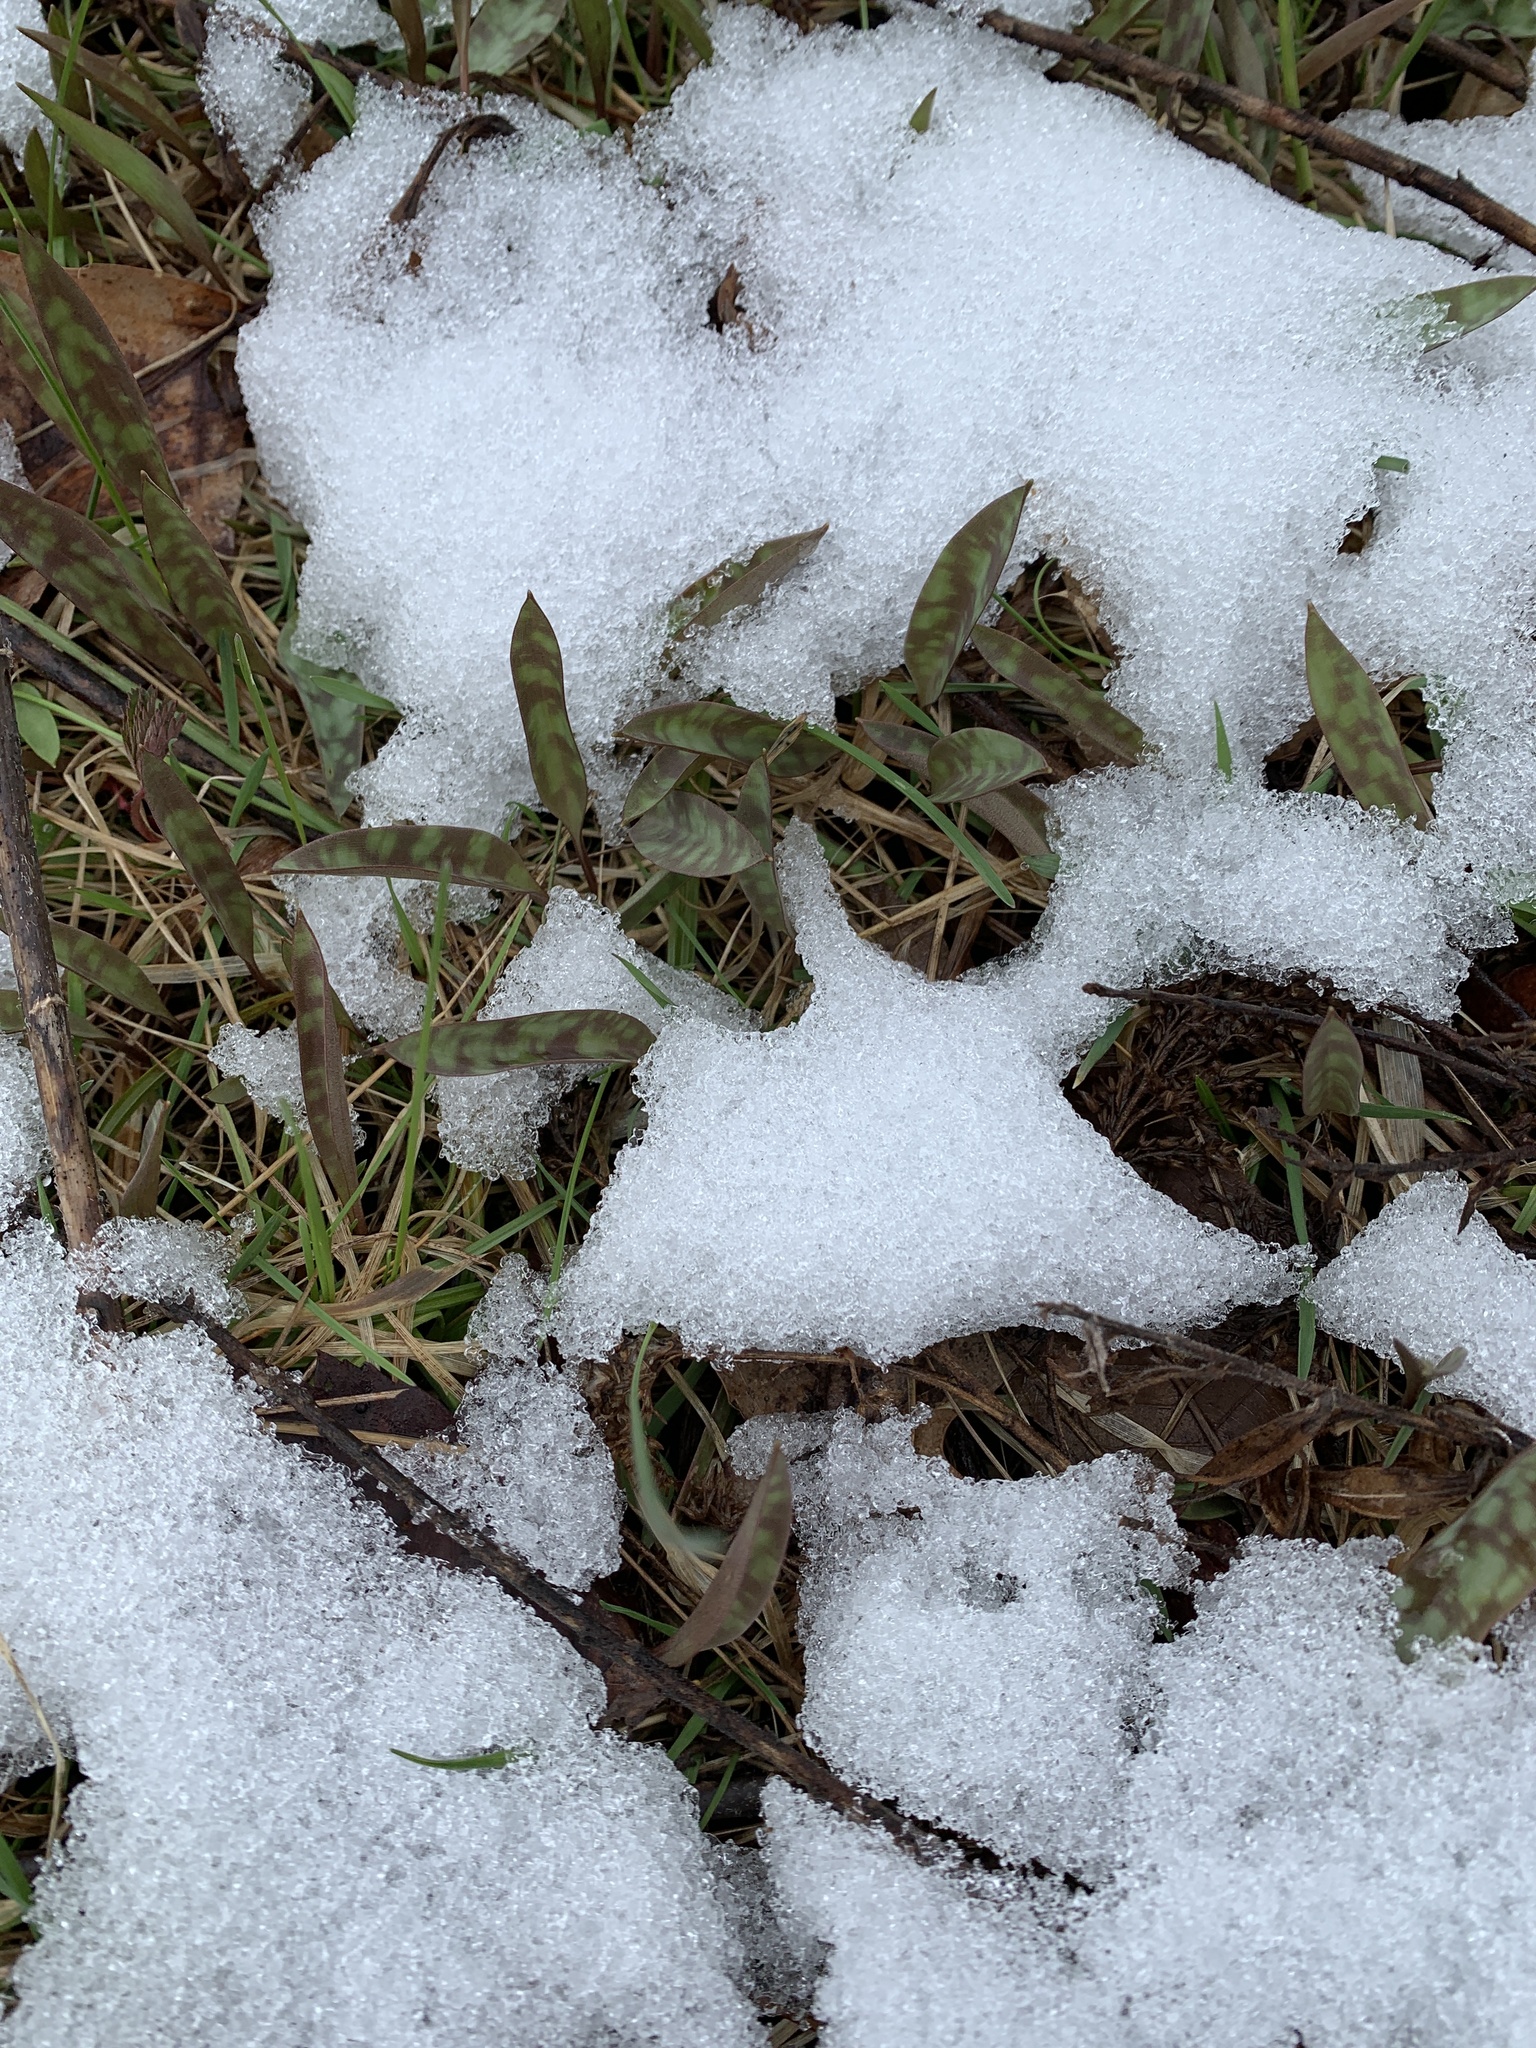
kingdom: Plantae
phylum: Tracheophyta
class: Liliopsida
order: Liliales
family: Liliaceae
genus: Erythronium
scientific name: Erythronium americanum
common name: Yellow adder's-tongue
